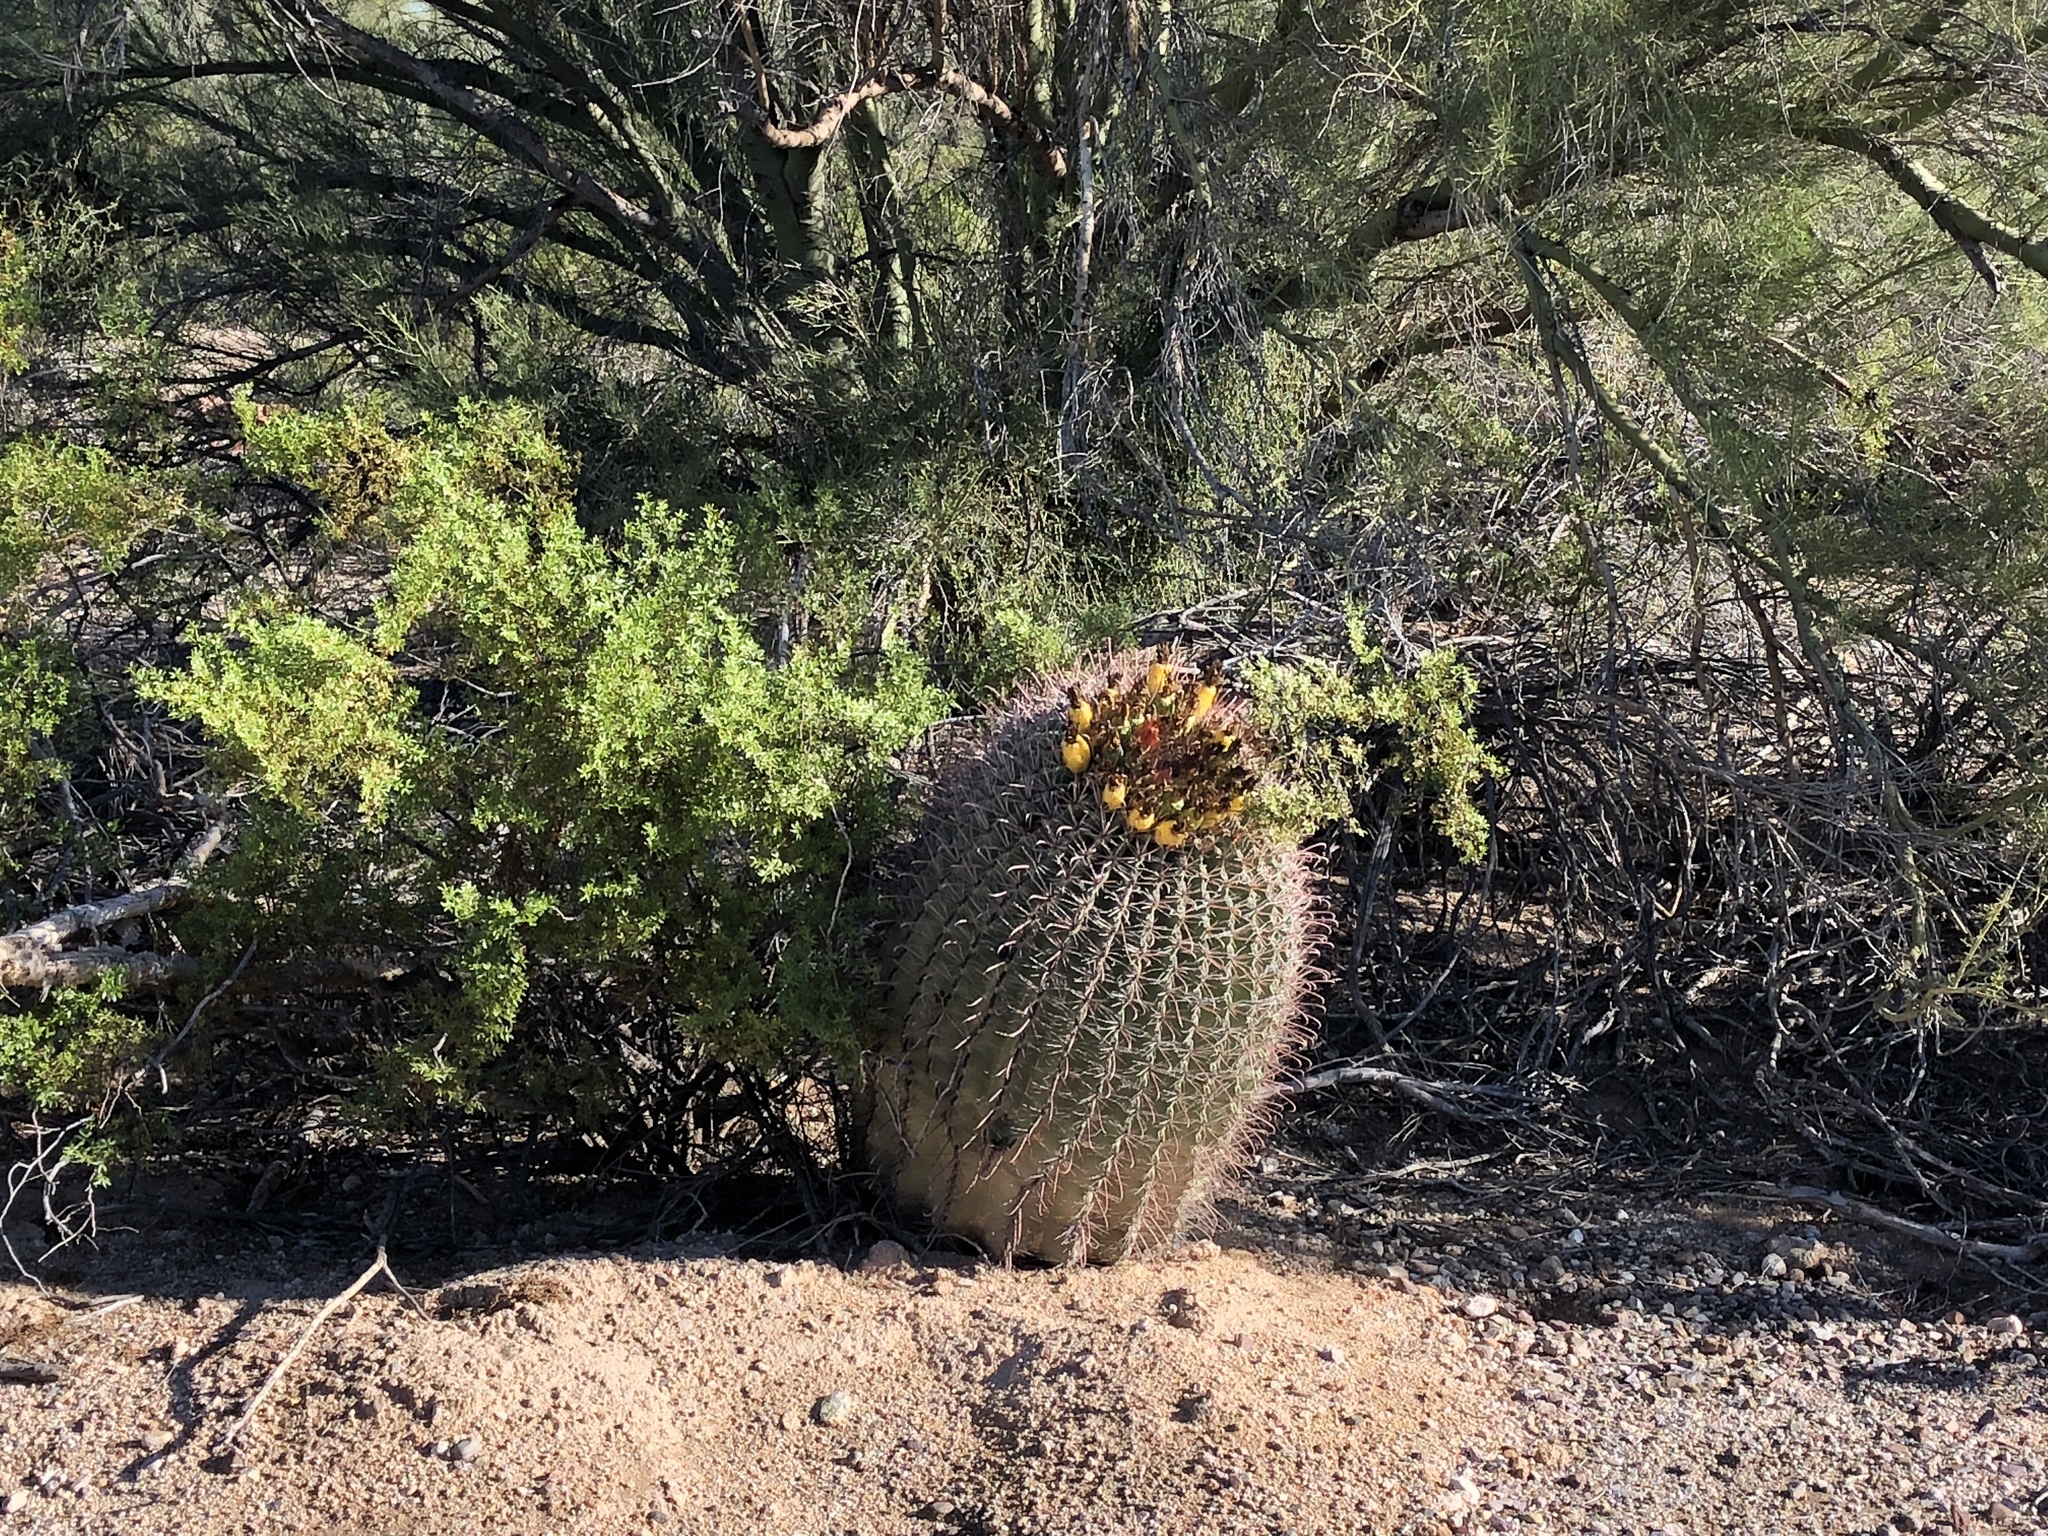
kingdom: Plantae
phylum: Tracheophyta
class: Magnoliopsida
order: Caryophyllales
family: Cactaceae
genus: Ferocactus
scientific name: Ferocactus wislizeni
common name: Candy barrel cactus
